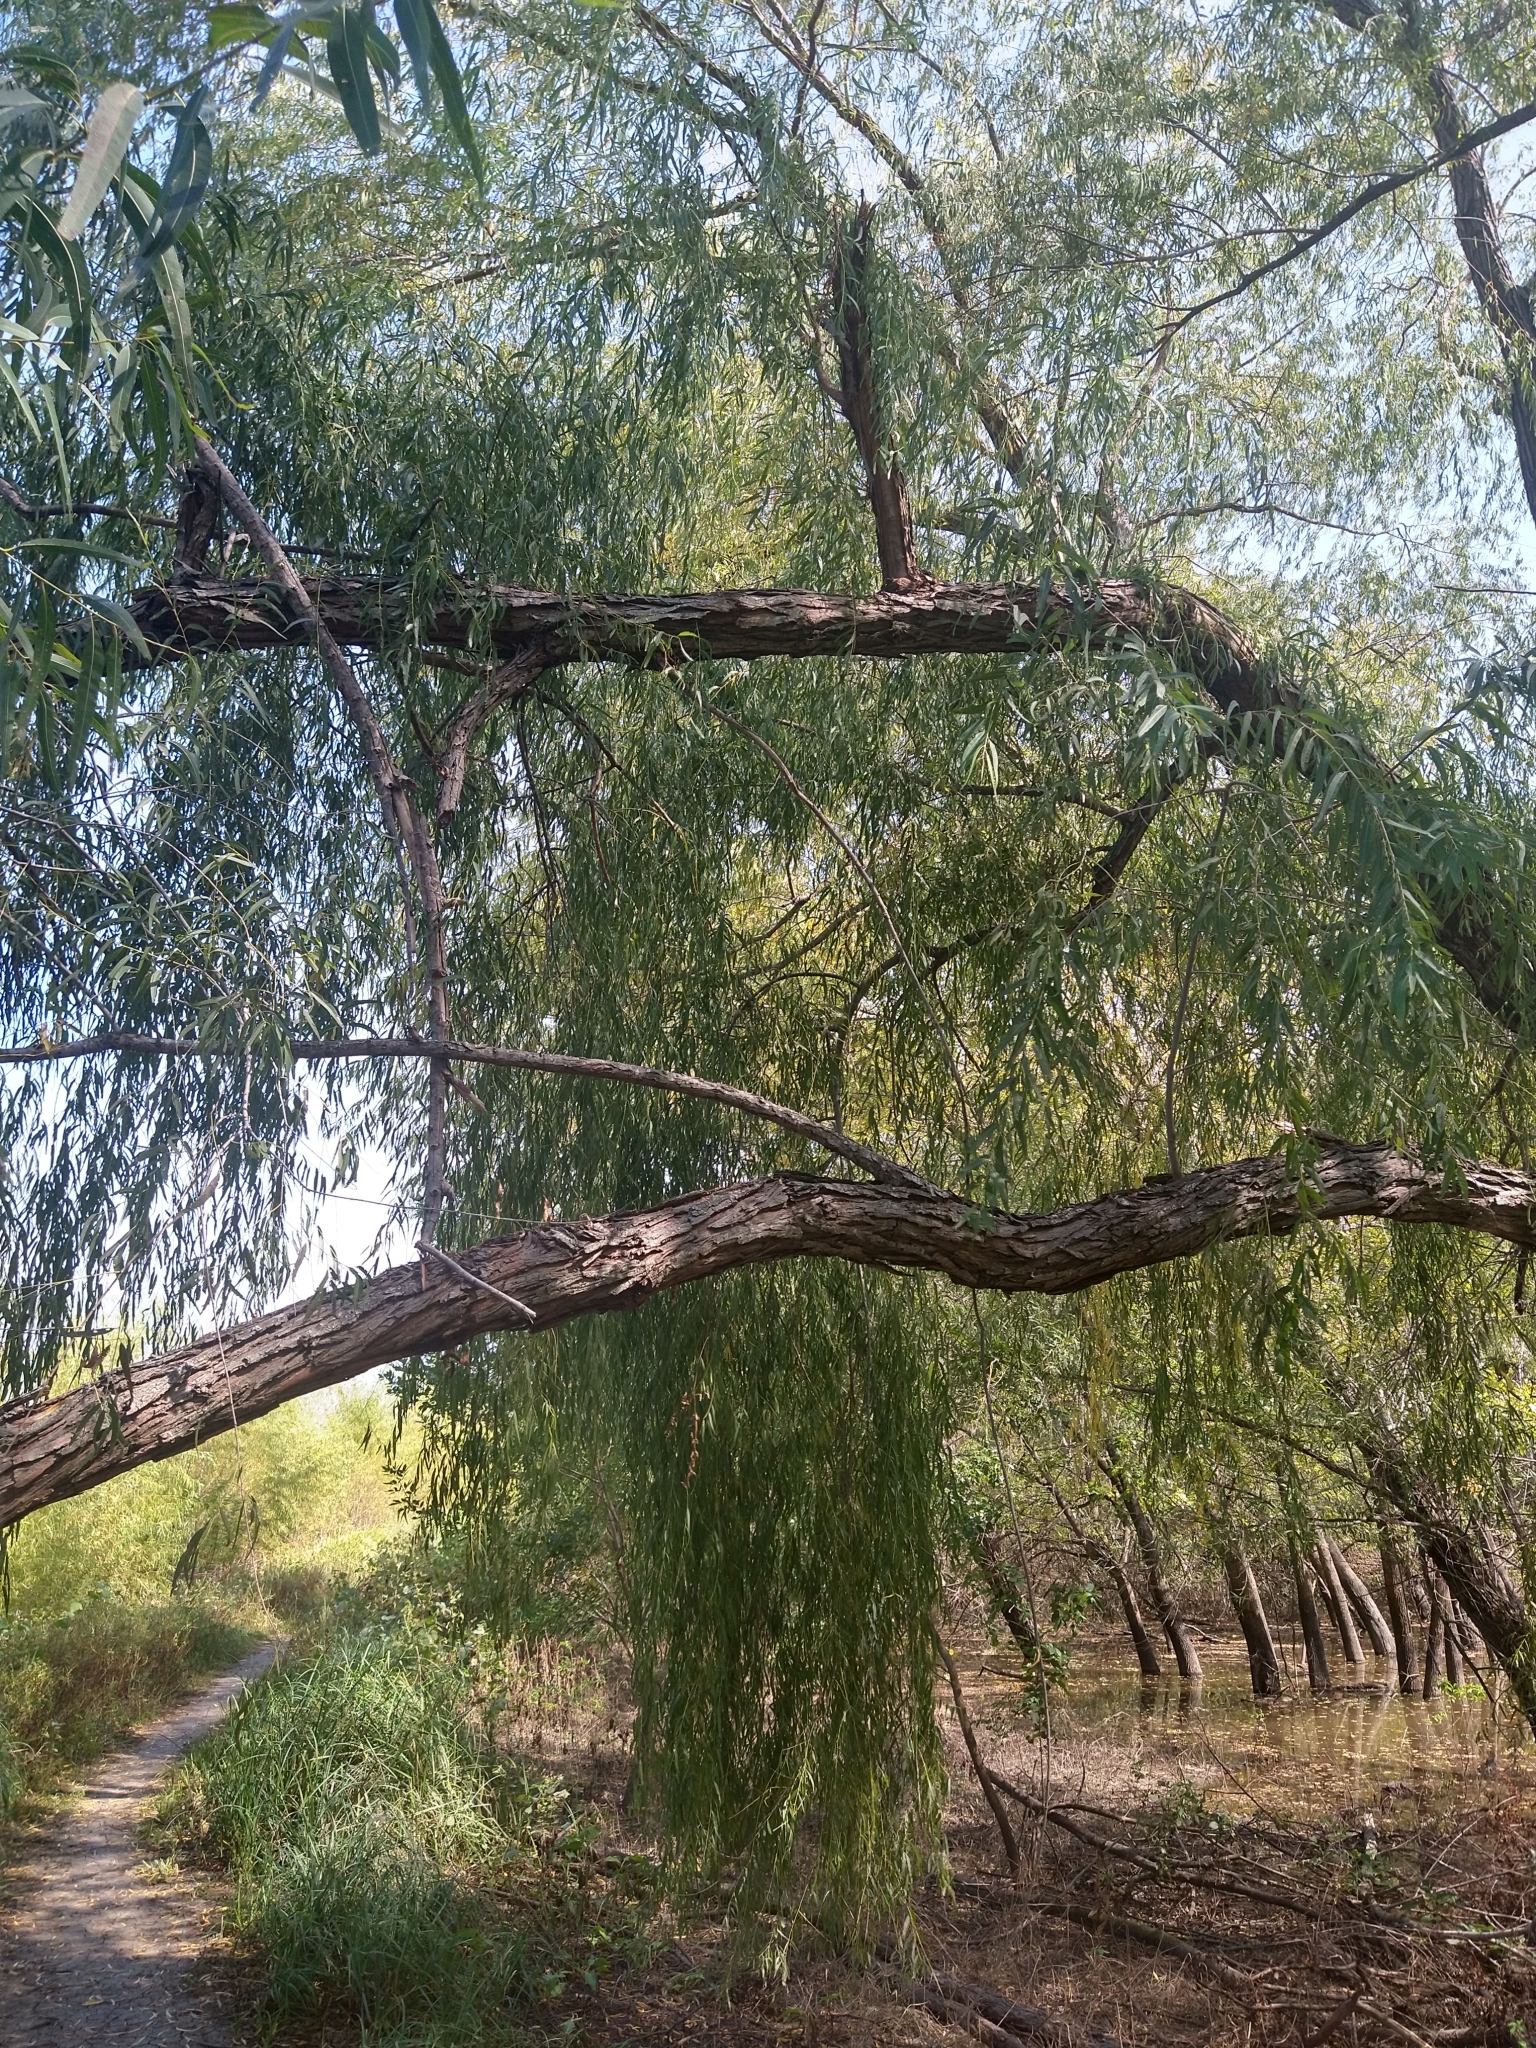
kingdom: Plantae
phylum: Tracheophyta
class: Magnoliopsida
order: Malpighiales
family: Salicaceae
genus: Salix
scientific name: Salix nigra
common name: Black willow
